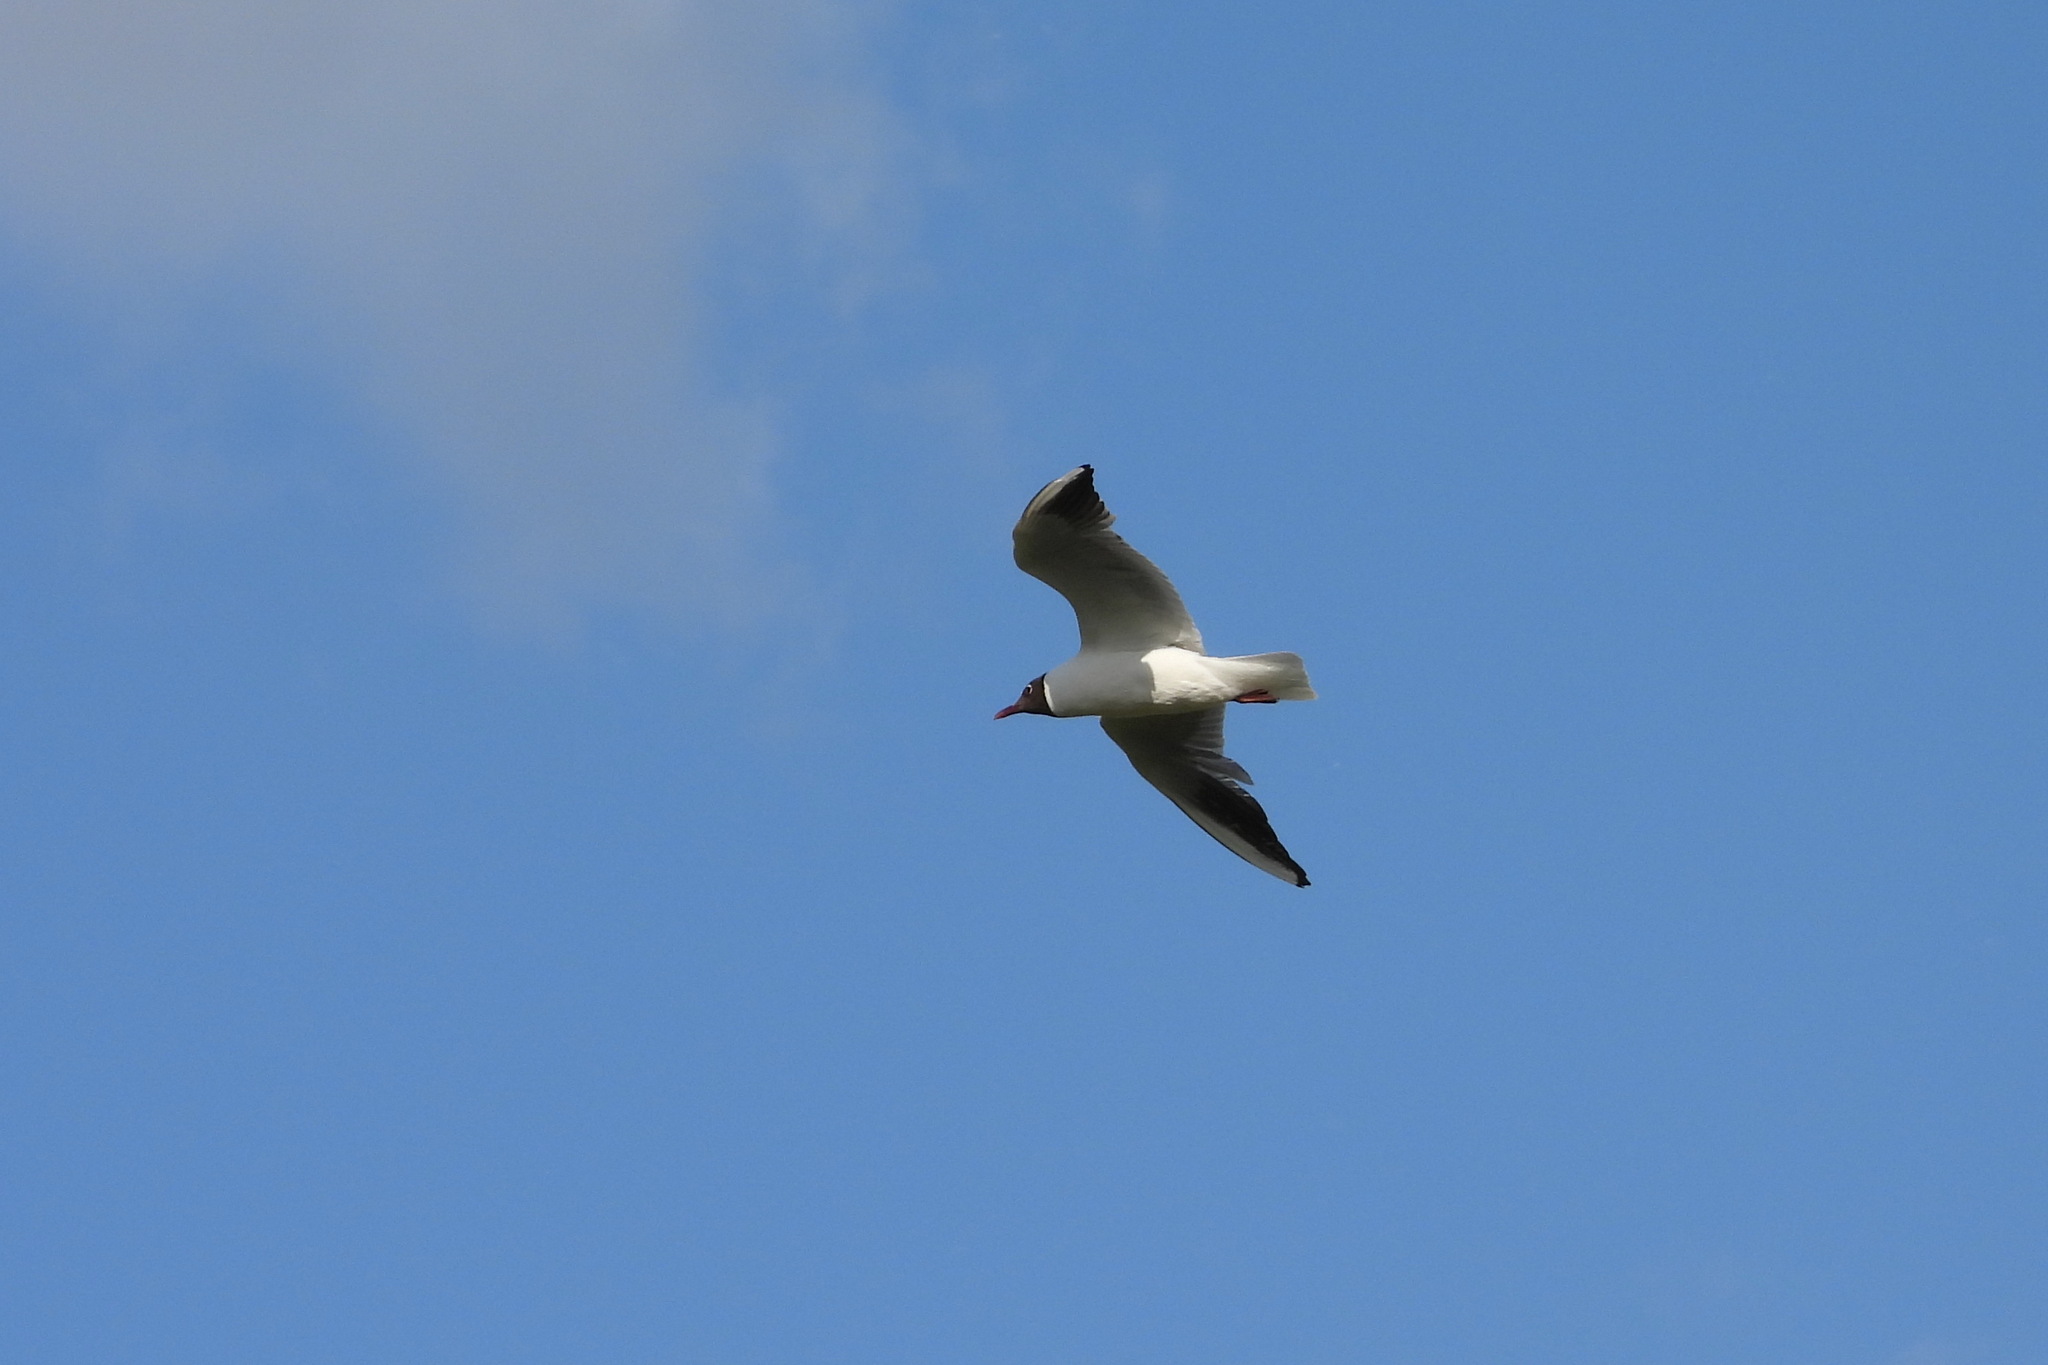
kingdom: Animalia
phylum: Chordata
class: Aves
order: Charadriiformes
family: Laridae
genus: Chroicocephalus
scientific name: Chroicocephalus ridibundus
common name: Black-headed gull
